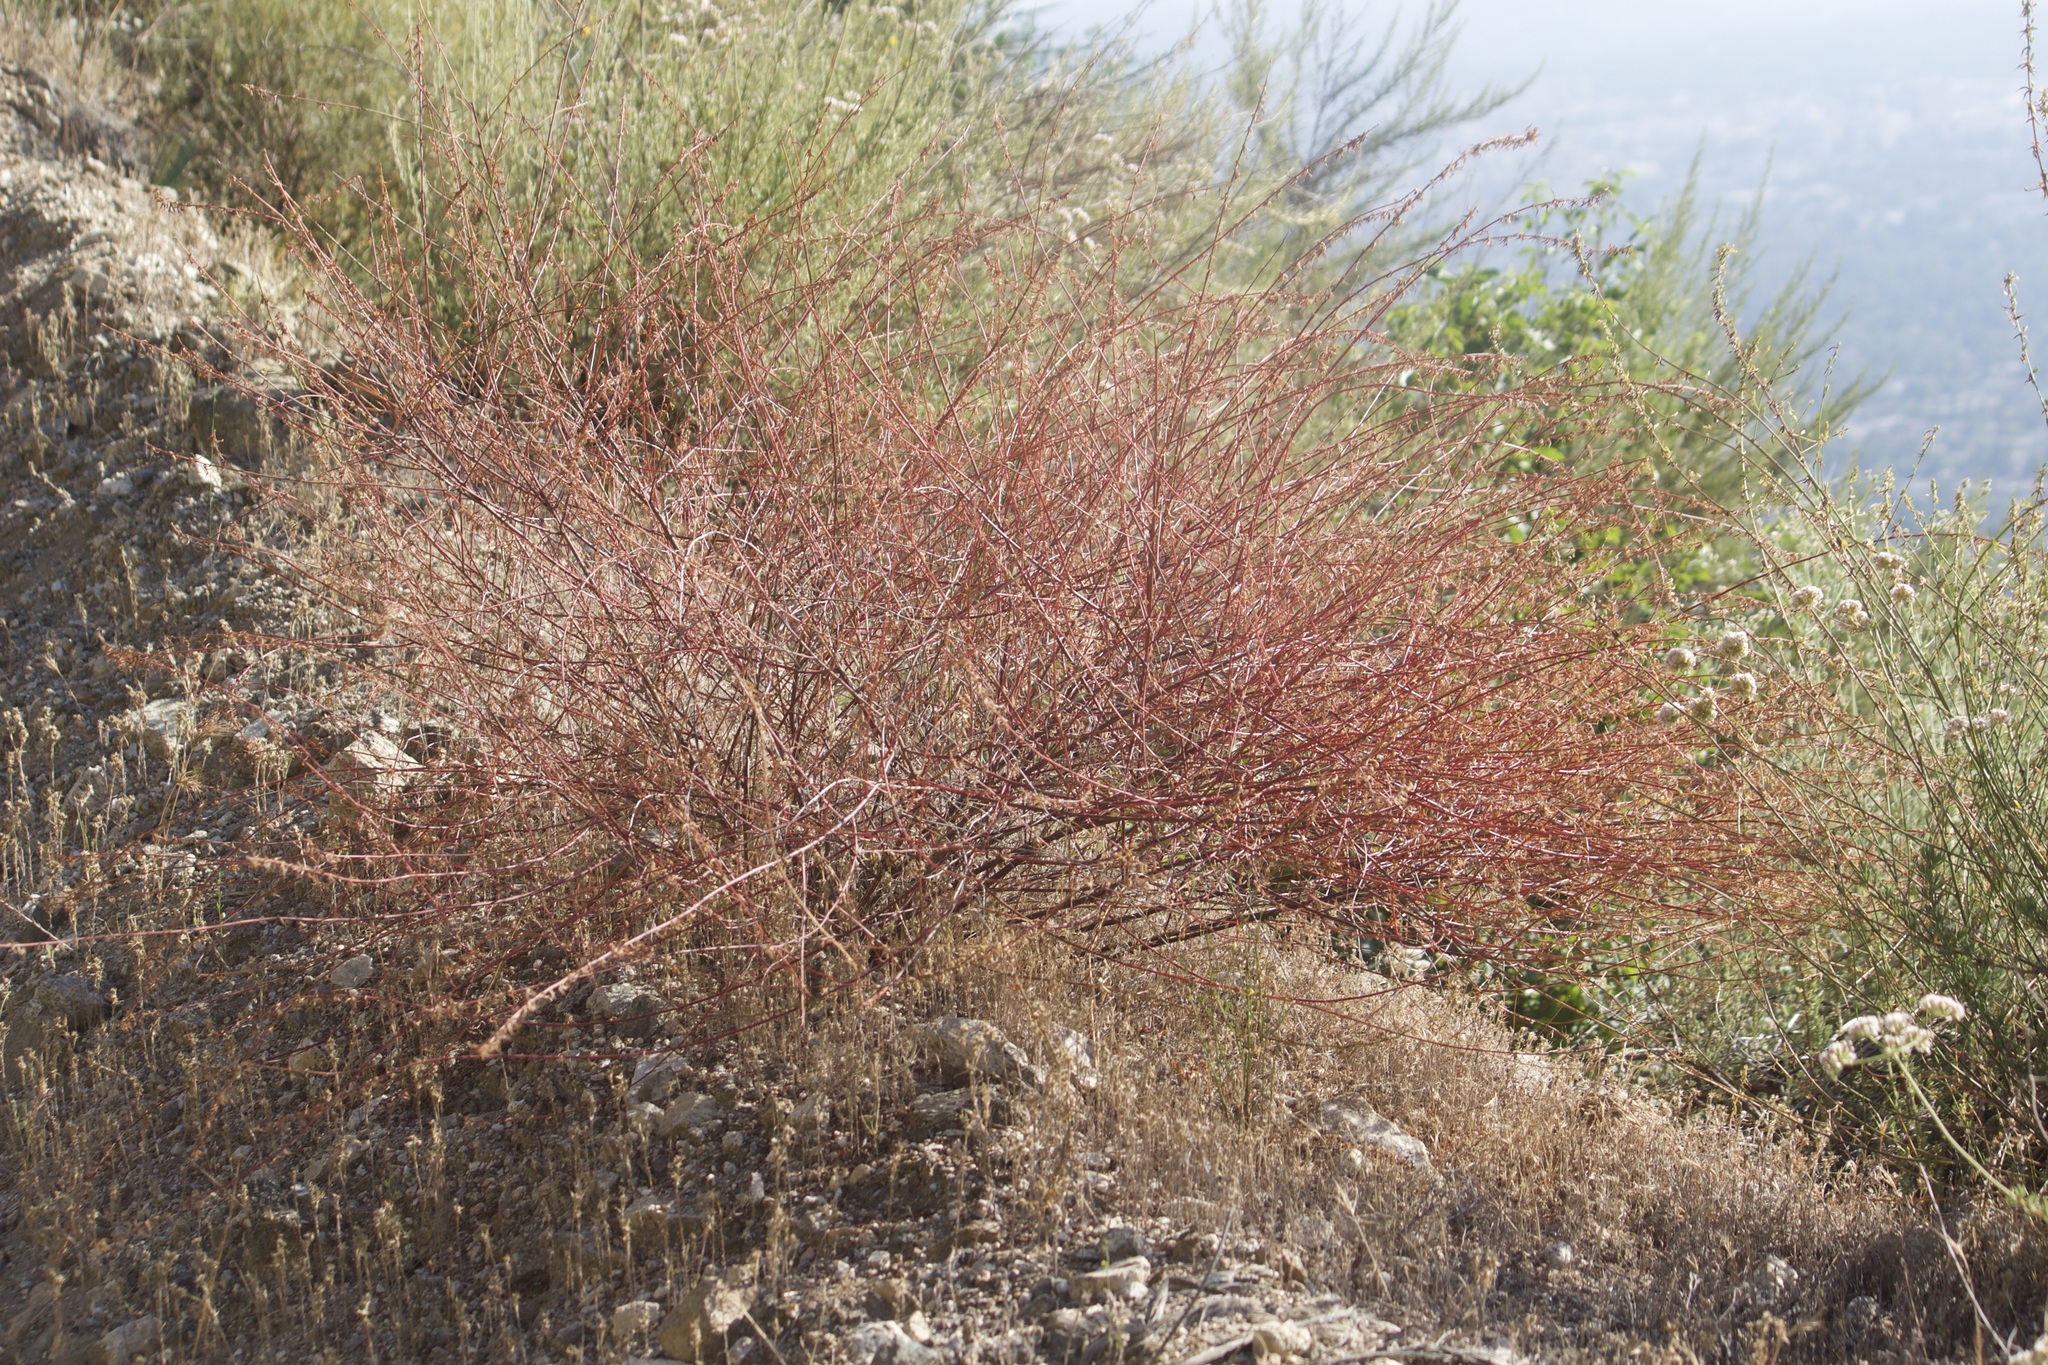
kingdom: Plantae
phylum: Tracheophyta
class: Magnoliopsida
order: Fabales
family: Fabaceae
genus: Acmispon
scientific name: Acmispon glaber
